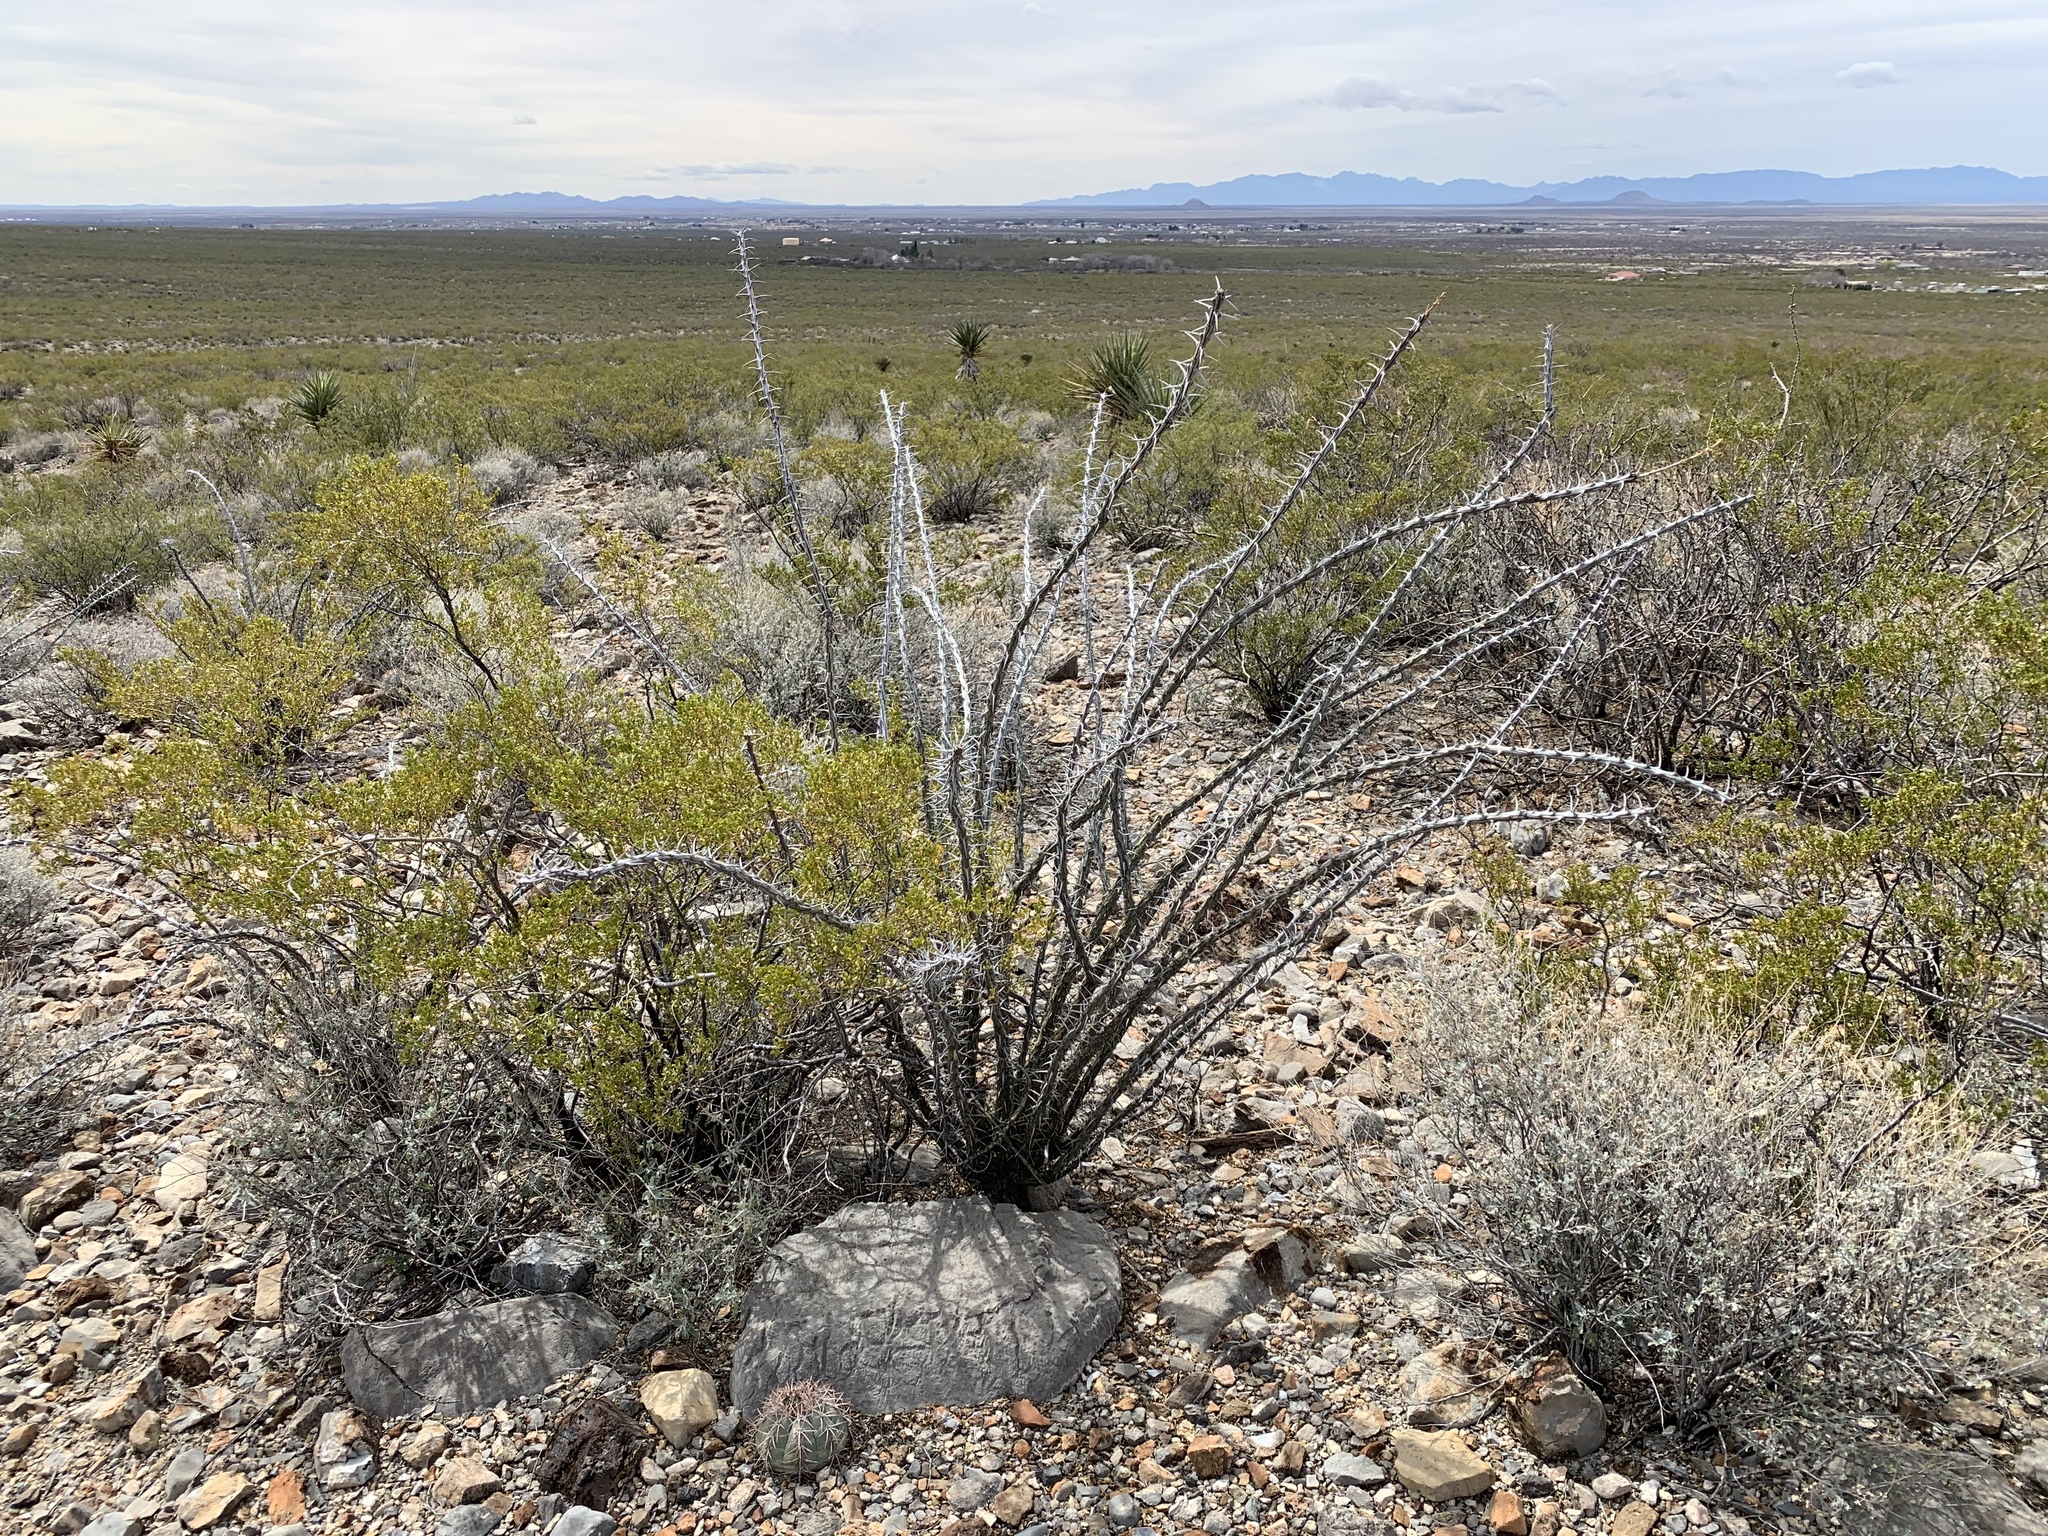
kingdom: Plantae
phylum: Tracheophyta
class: Magnoliopsida
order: Ericales
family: Fouquieriaceae
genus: Fouquieria
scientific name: Fouquieria splendens
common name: Vine-cactus
